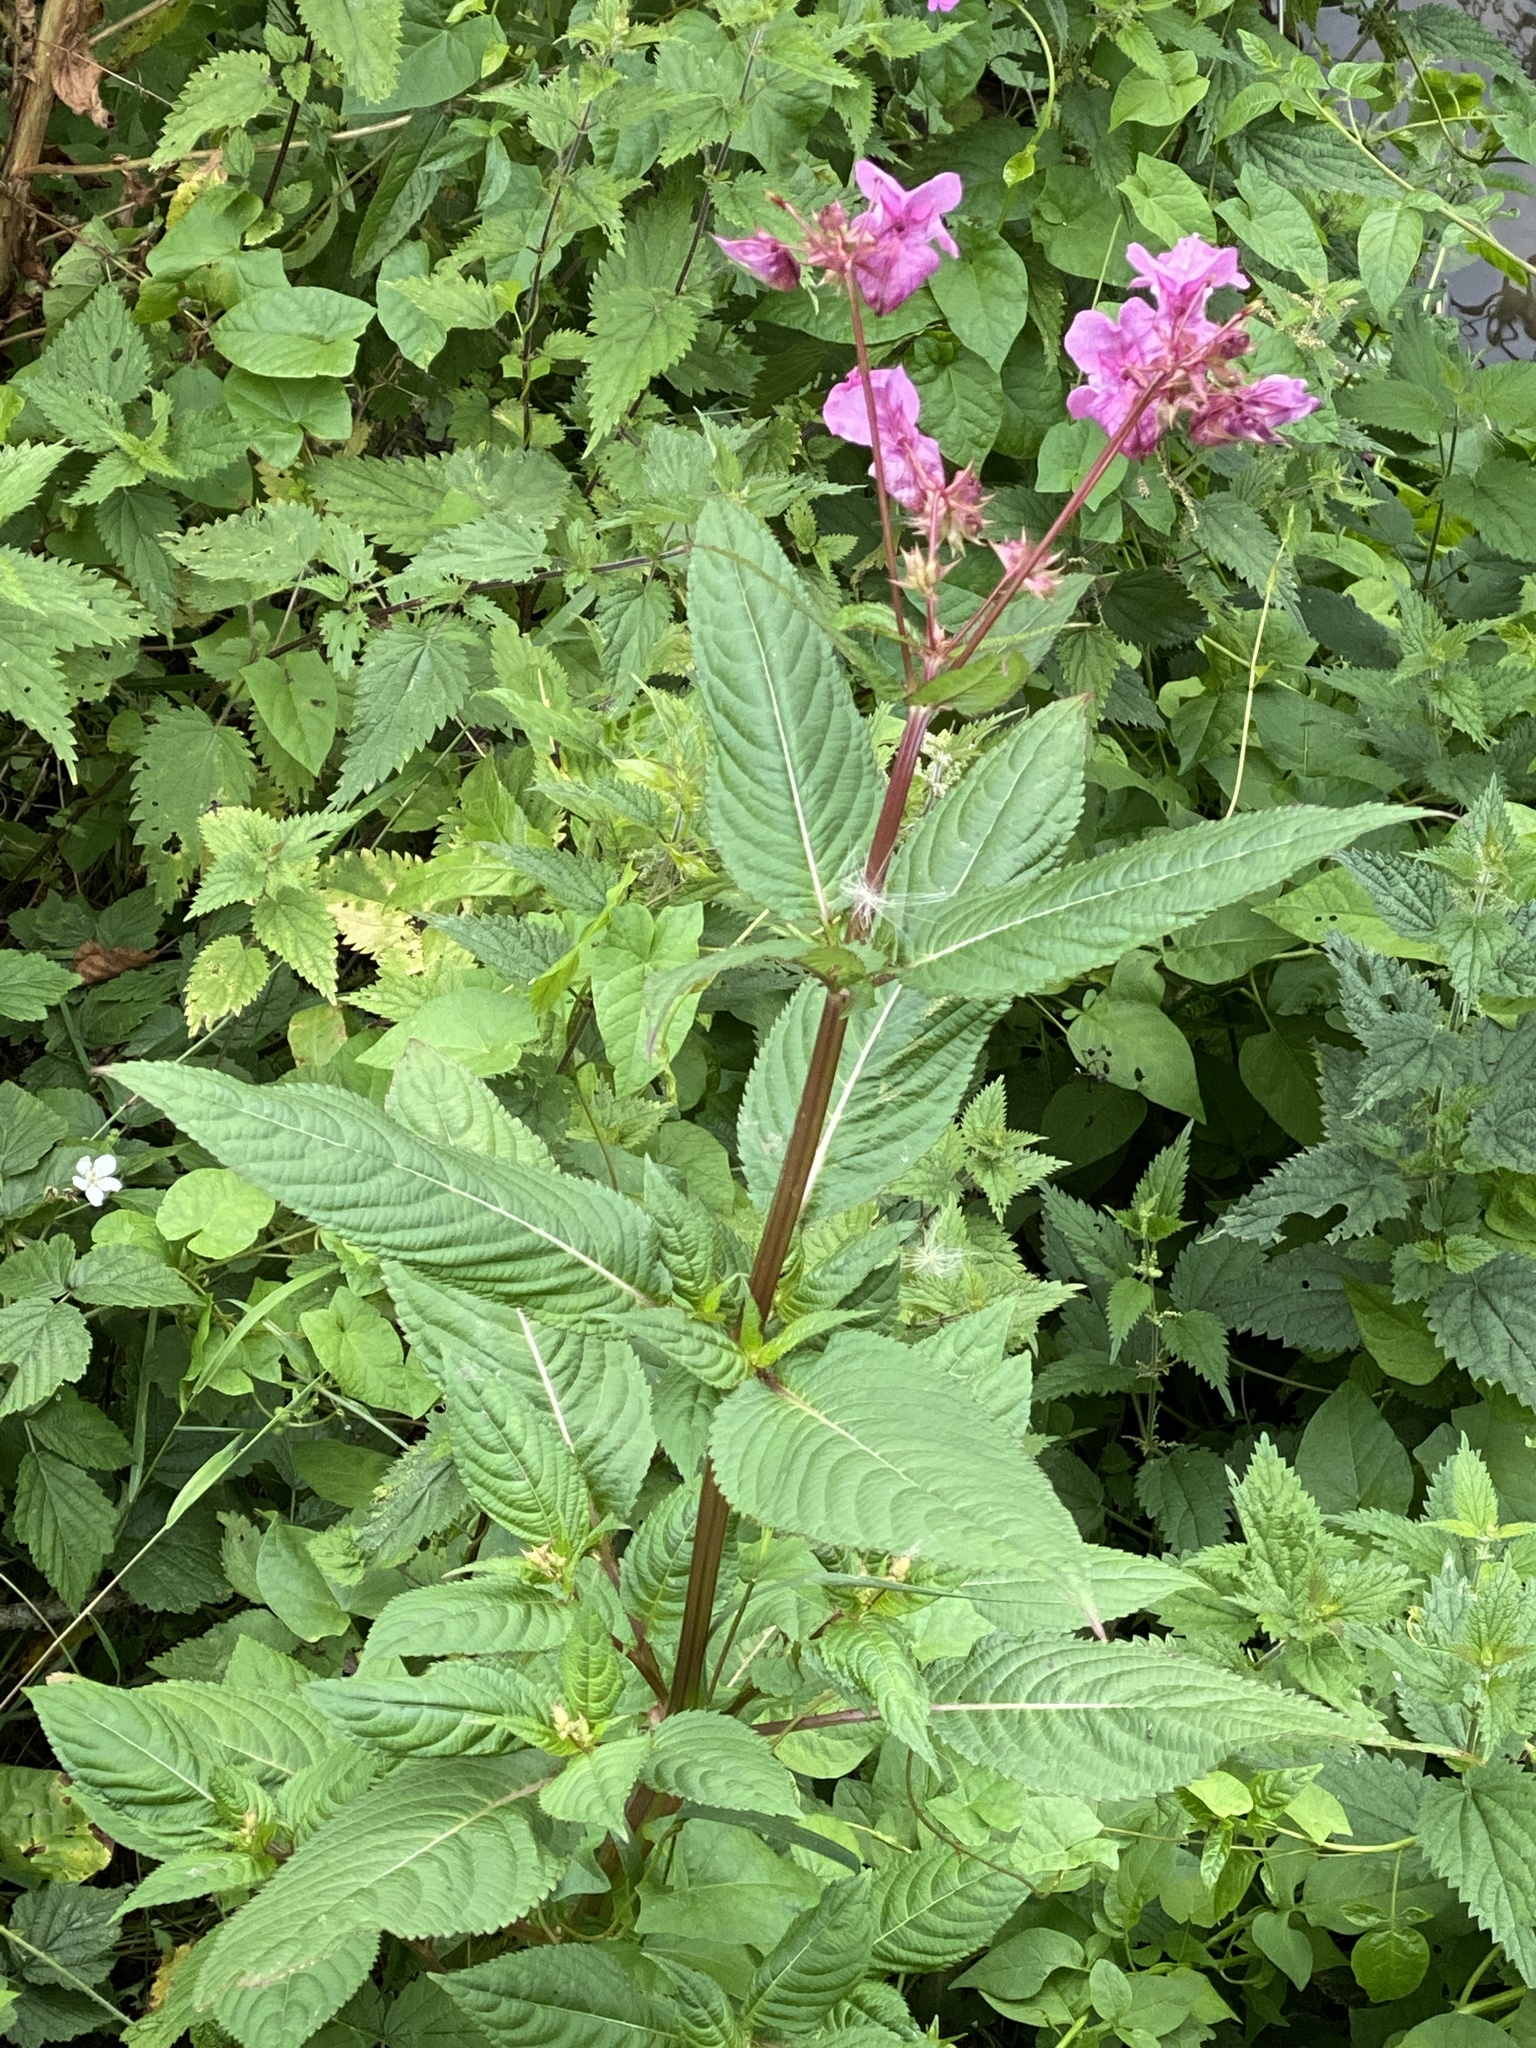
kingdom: Plantae
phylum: Tracheophyta
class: Magnoliopsida
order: Ericales
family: Balsaminaceae
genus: Impatiens
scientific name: Impatiens glandulifera
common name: Himalayan balsam
